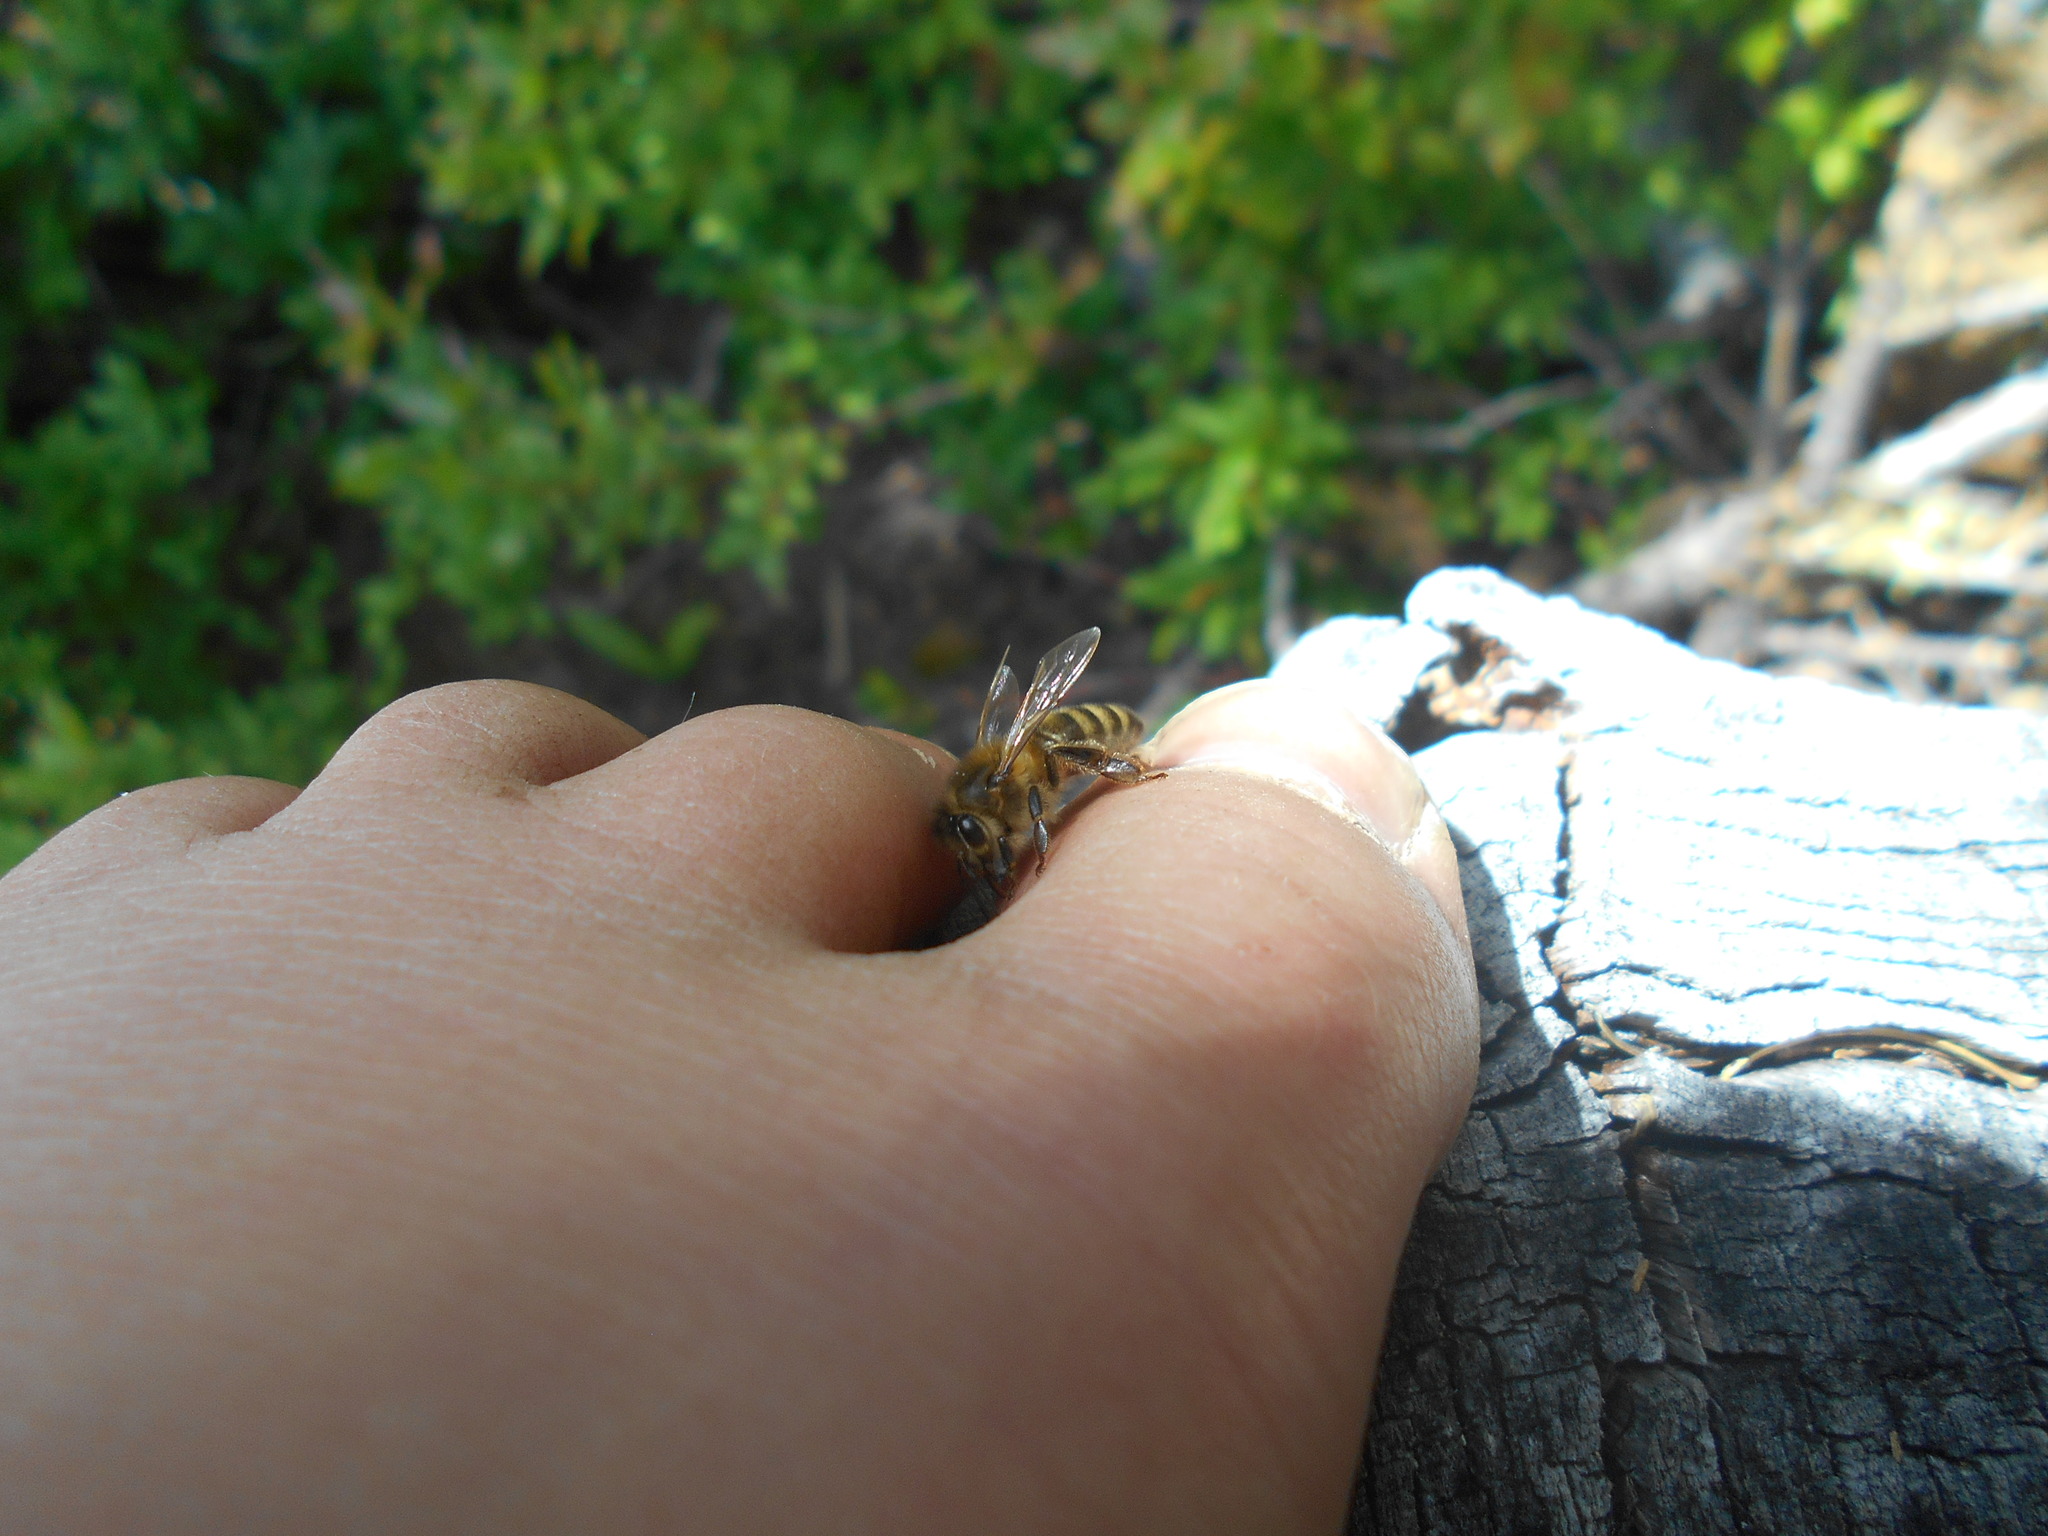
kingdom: Animalia
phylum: Arthropoda
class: Insecta
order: Hymenoptera
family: Apidae
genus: Apis
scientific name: Apis mellifera
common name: Honey bee
